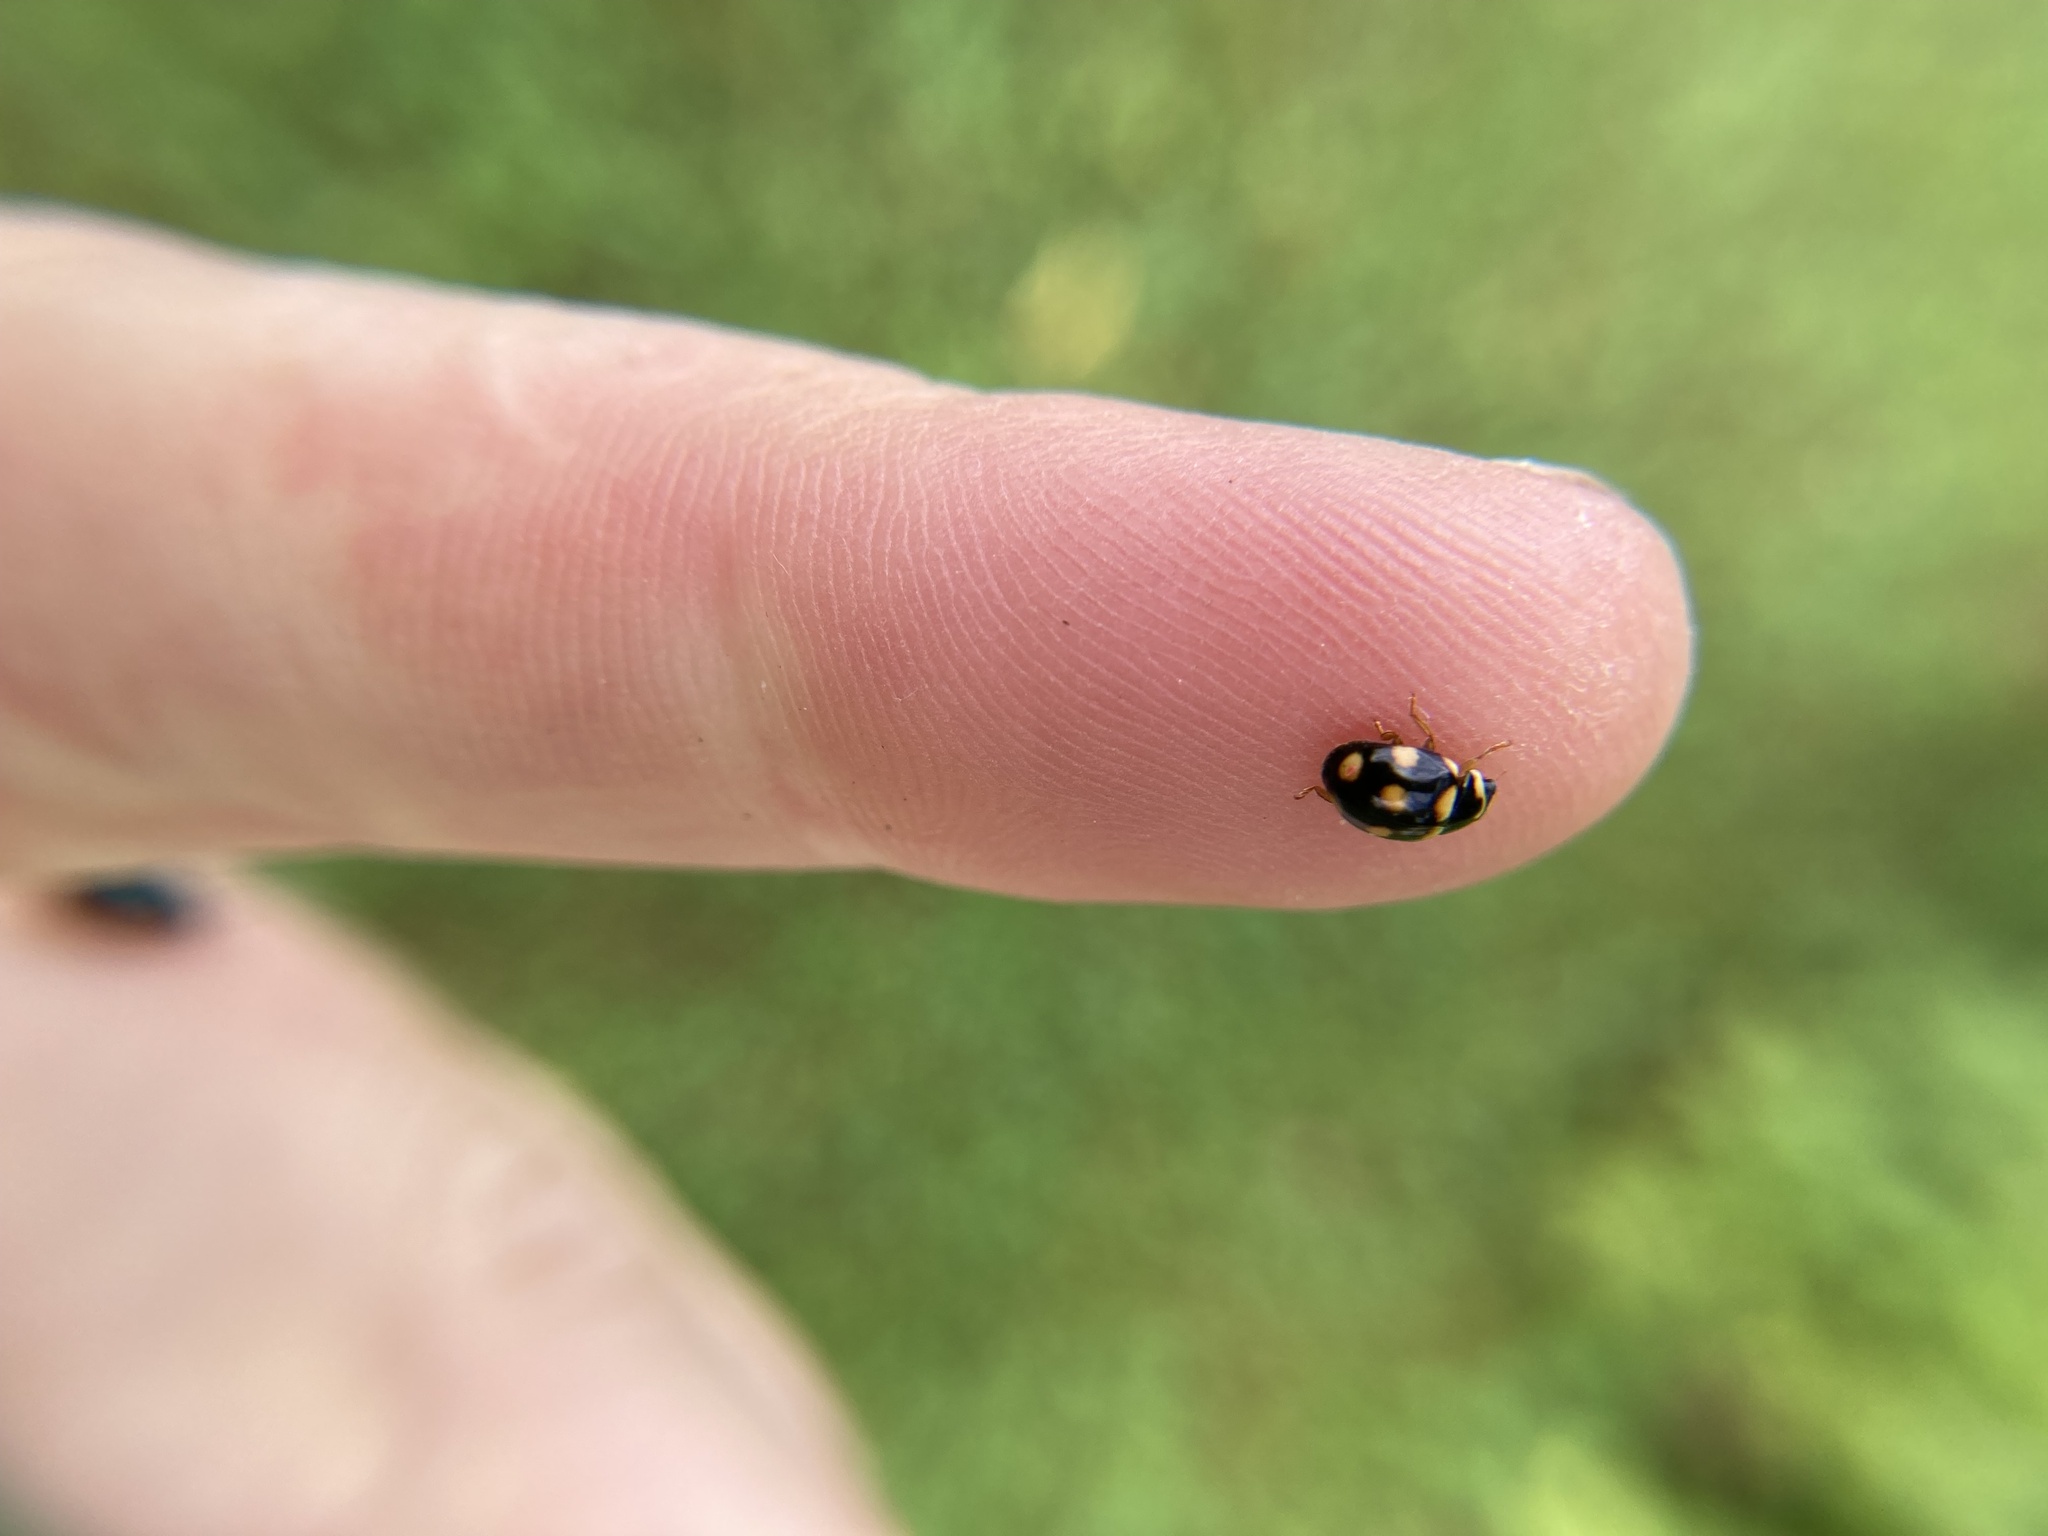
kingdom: Animalia
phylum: Arthropoda
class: Insecta
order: Coleoptera
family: Coccinellidae
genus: Brachiacantha
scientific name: Brachiacantha ursina
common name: Ursine spurleg lady beetle
